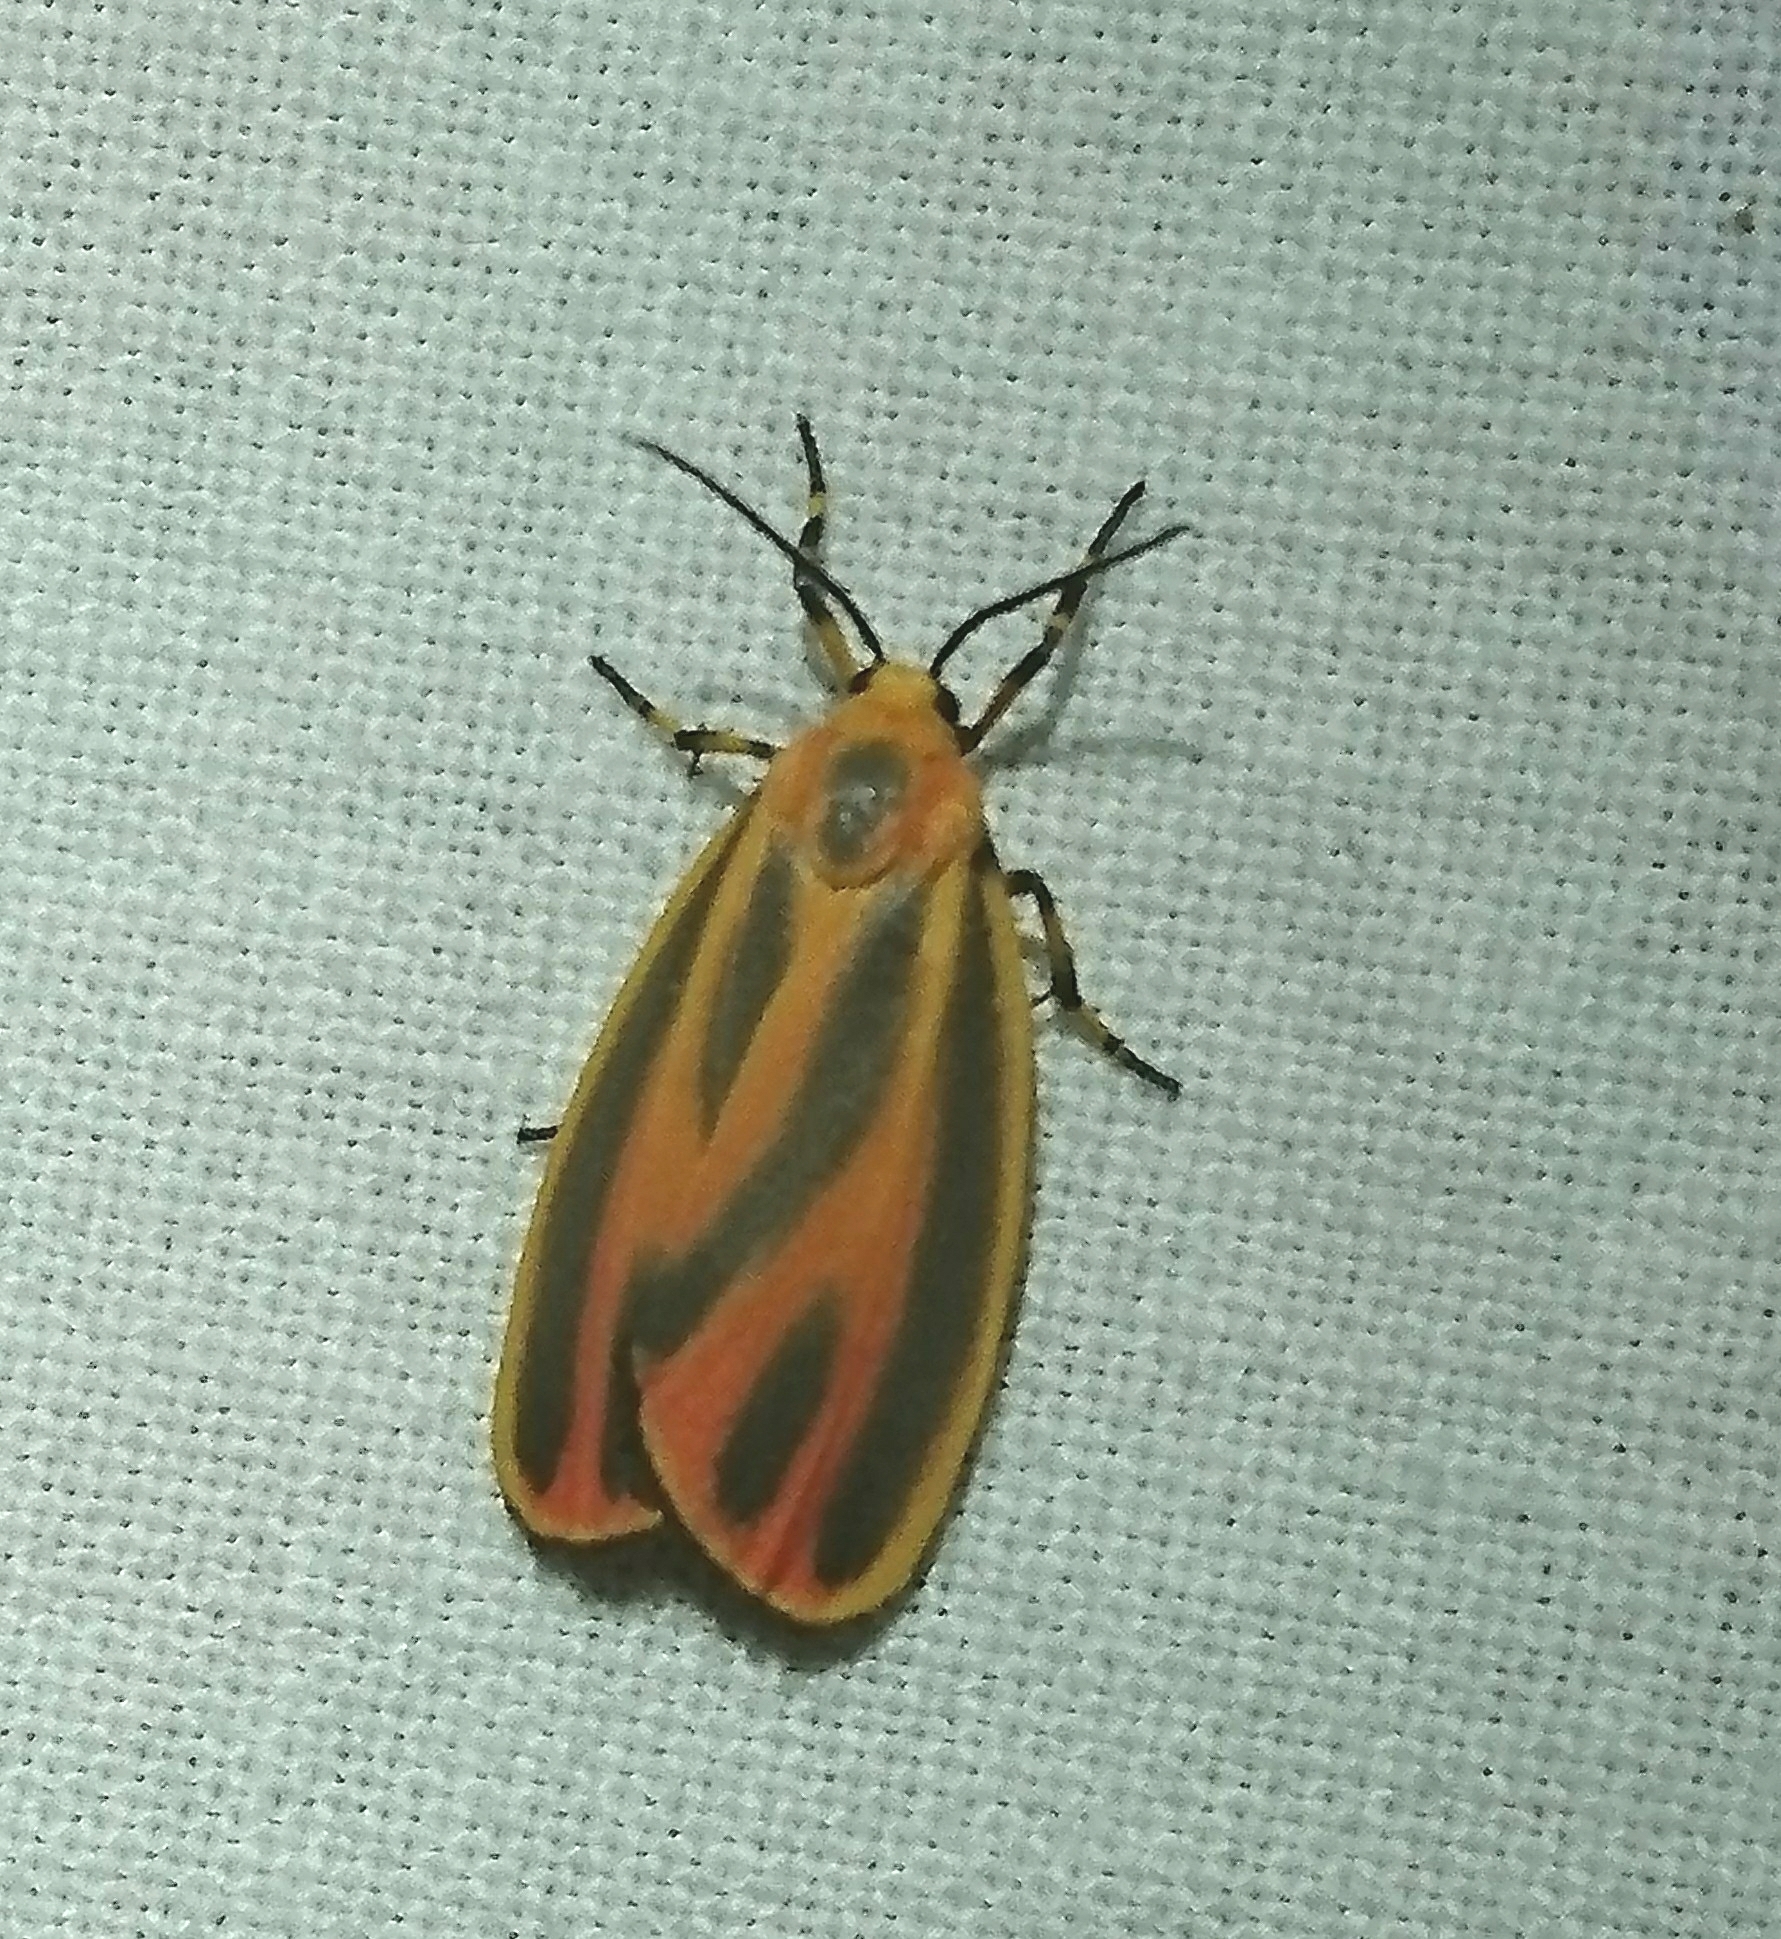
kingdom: Animalia
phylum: Arthropoda
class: Insecta
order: Lepidoptera
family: Erebidae
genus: Hypoprepia
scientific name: Hypoprepia fucosa
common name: Painted lichen moth
